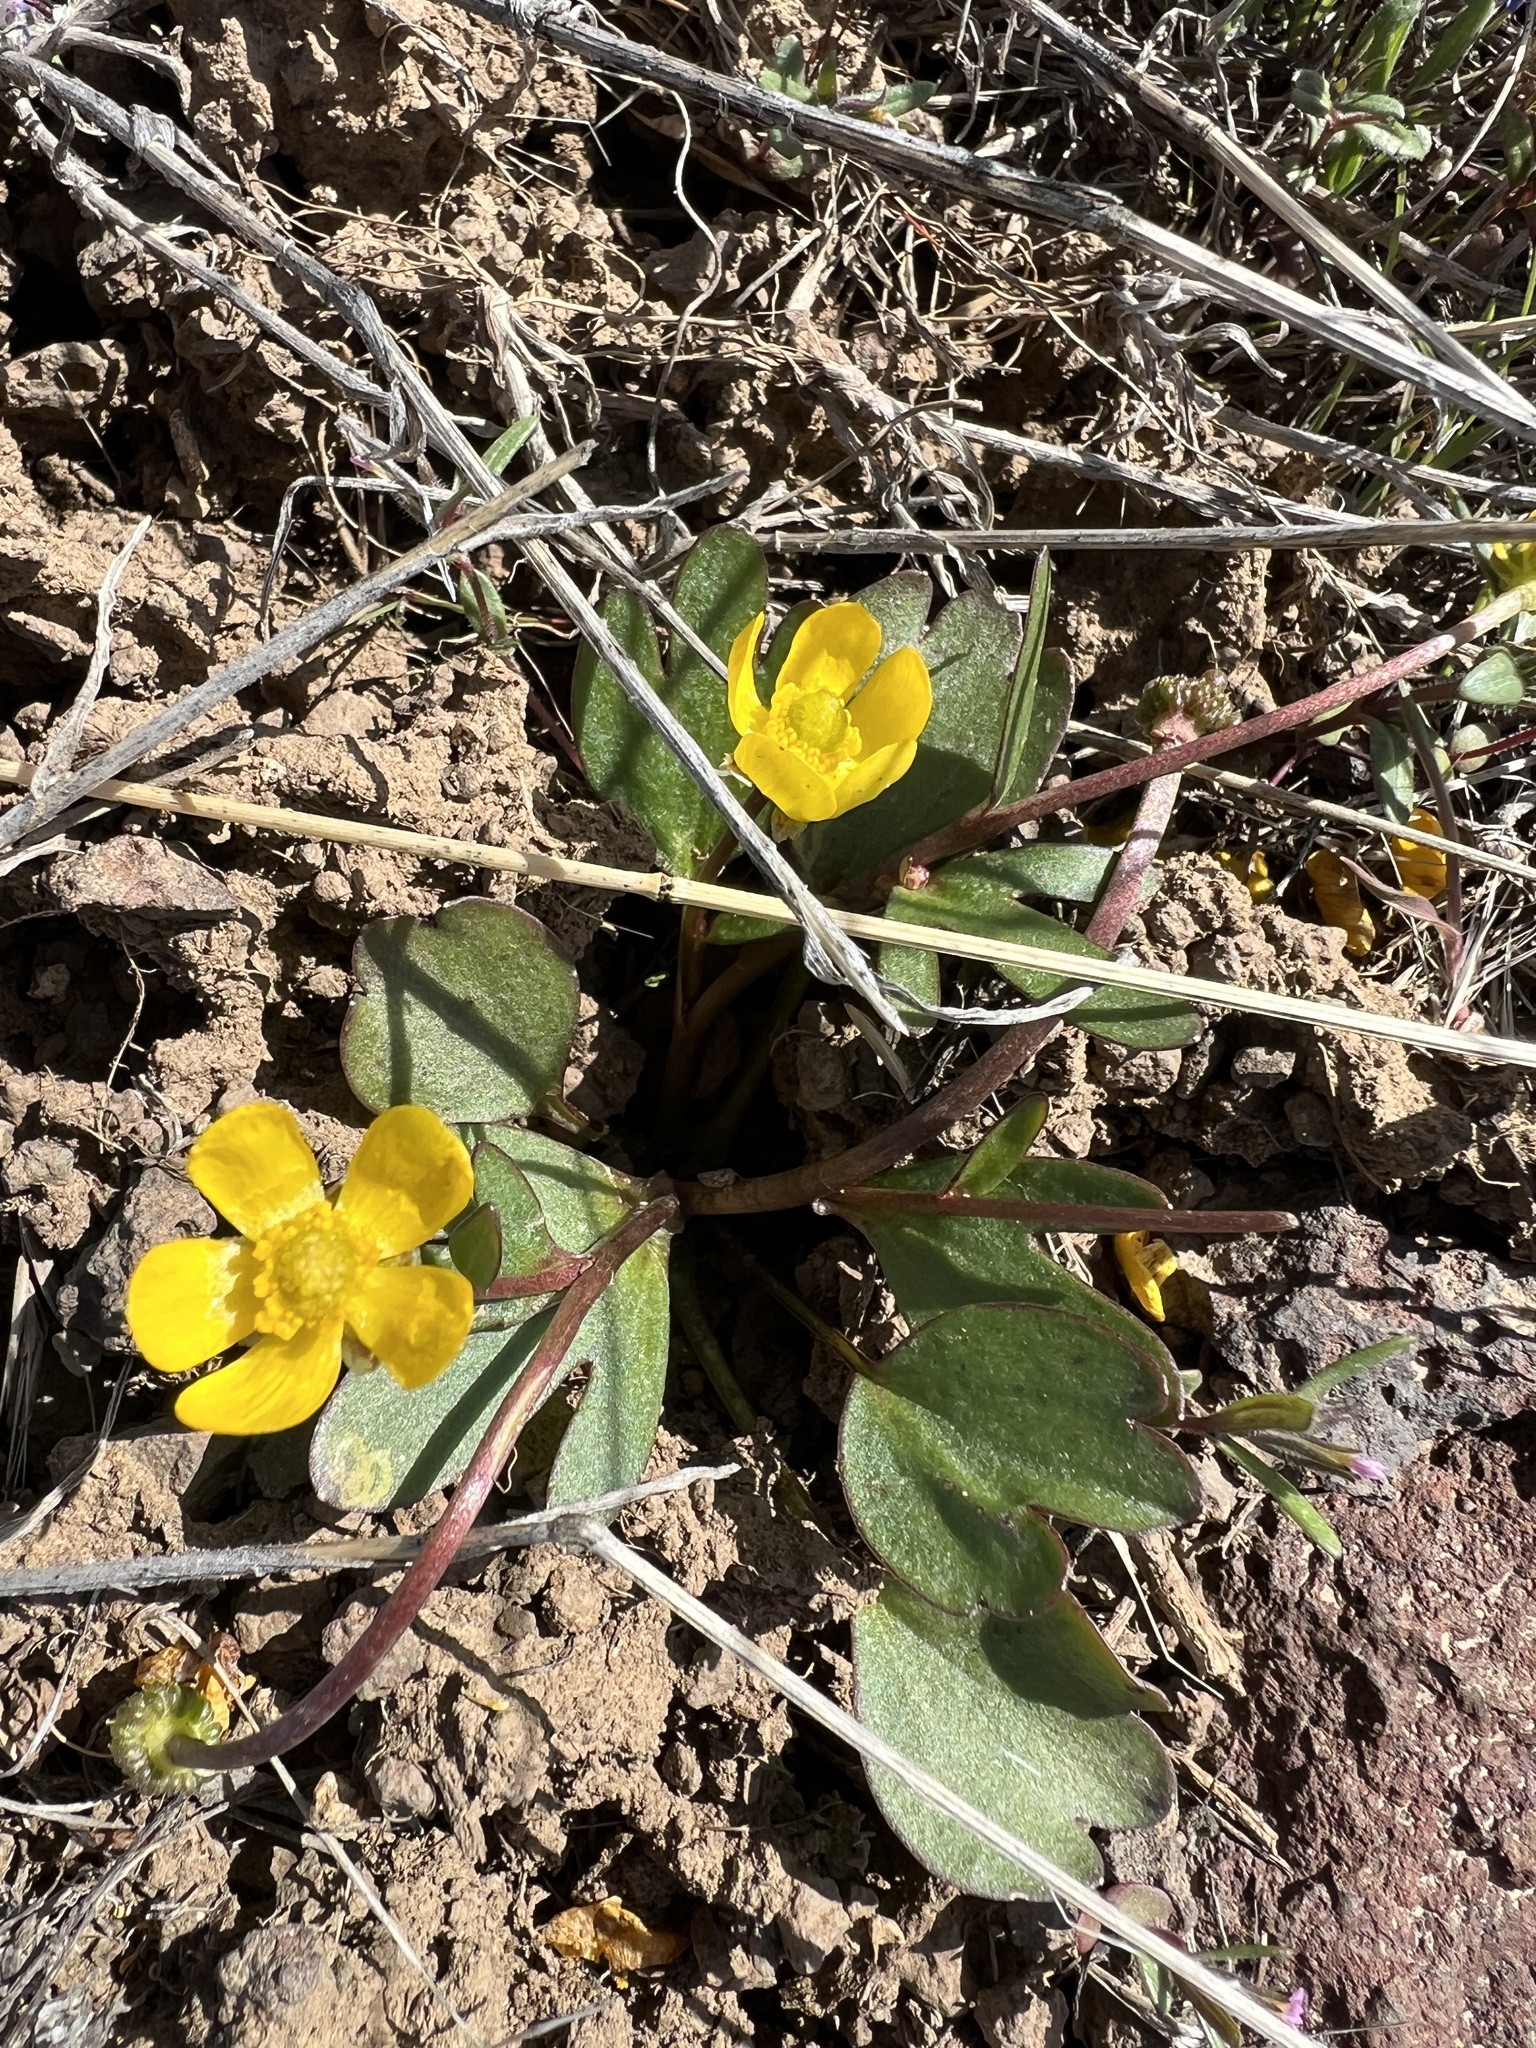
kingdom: Plantae
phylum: Tracheophyta
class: Magnoliopsida
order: Ranunculales
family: Ranunculaceae
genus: Ranunculus
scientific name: Ranunculus glaberrimus
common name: Sagebrush buttercup
